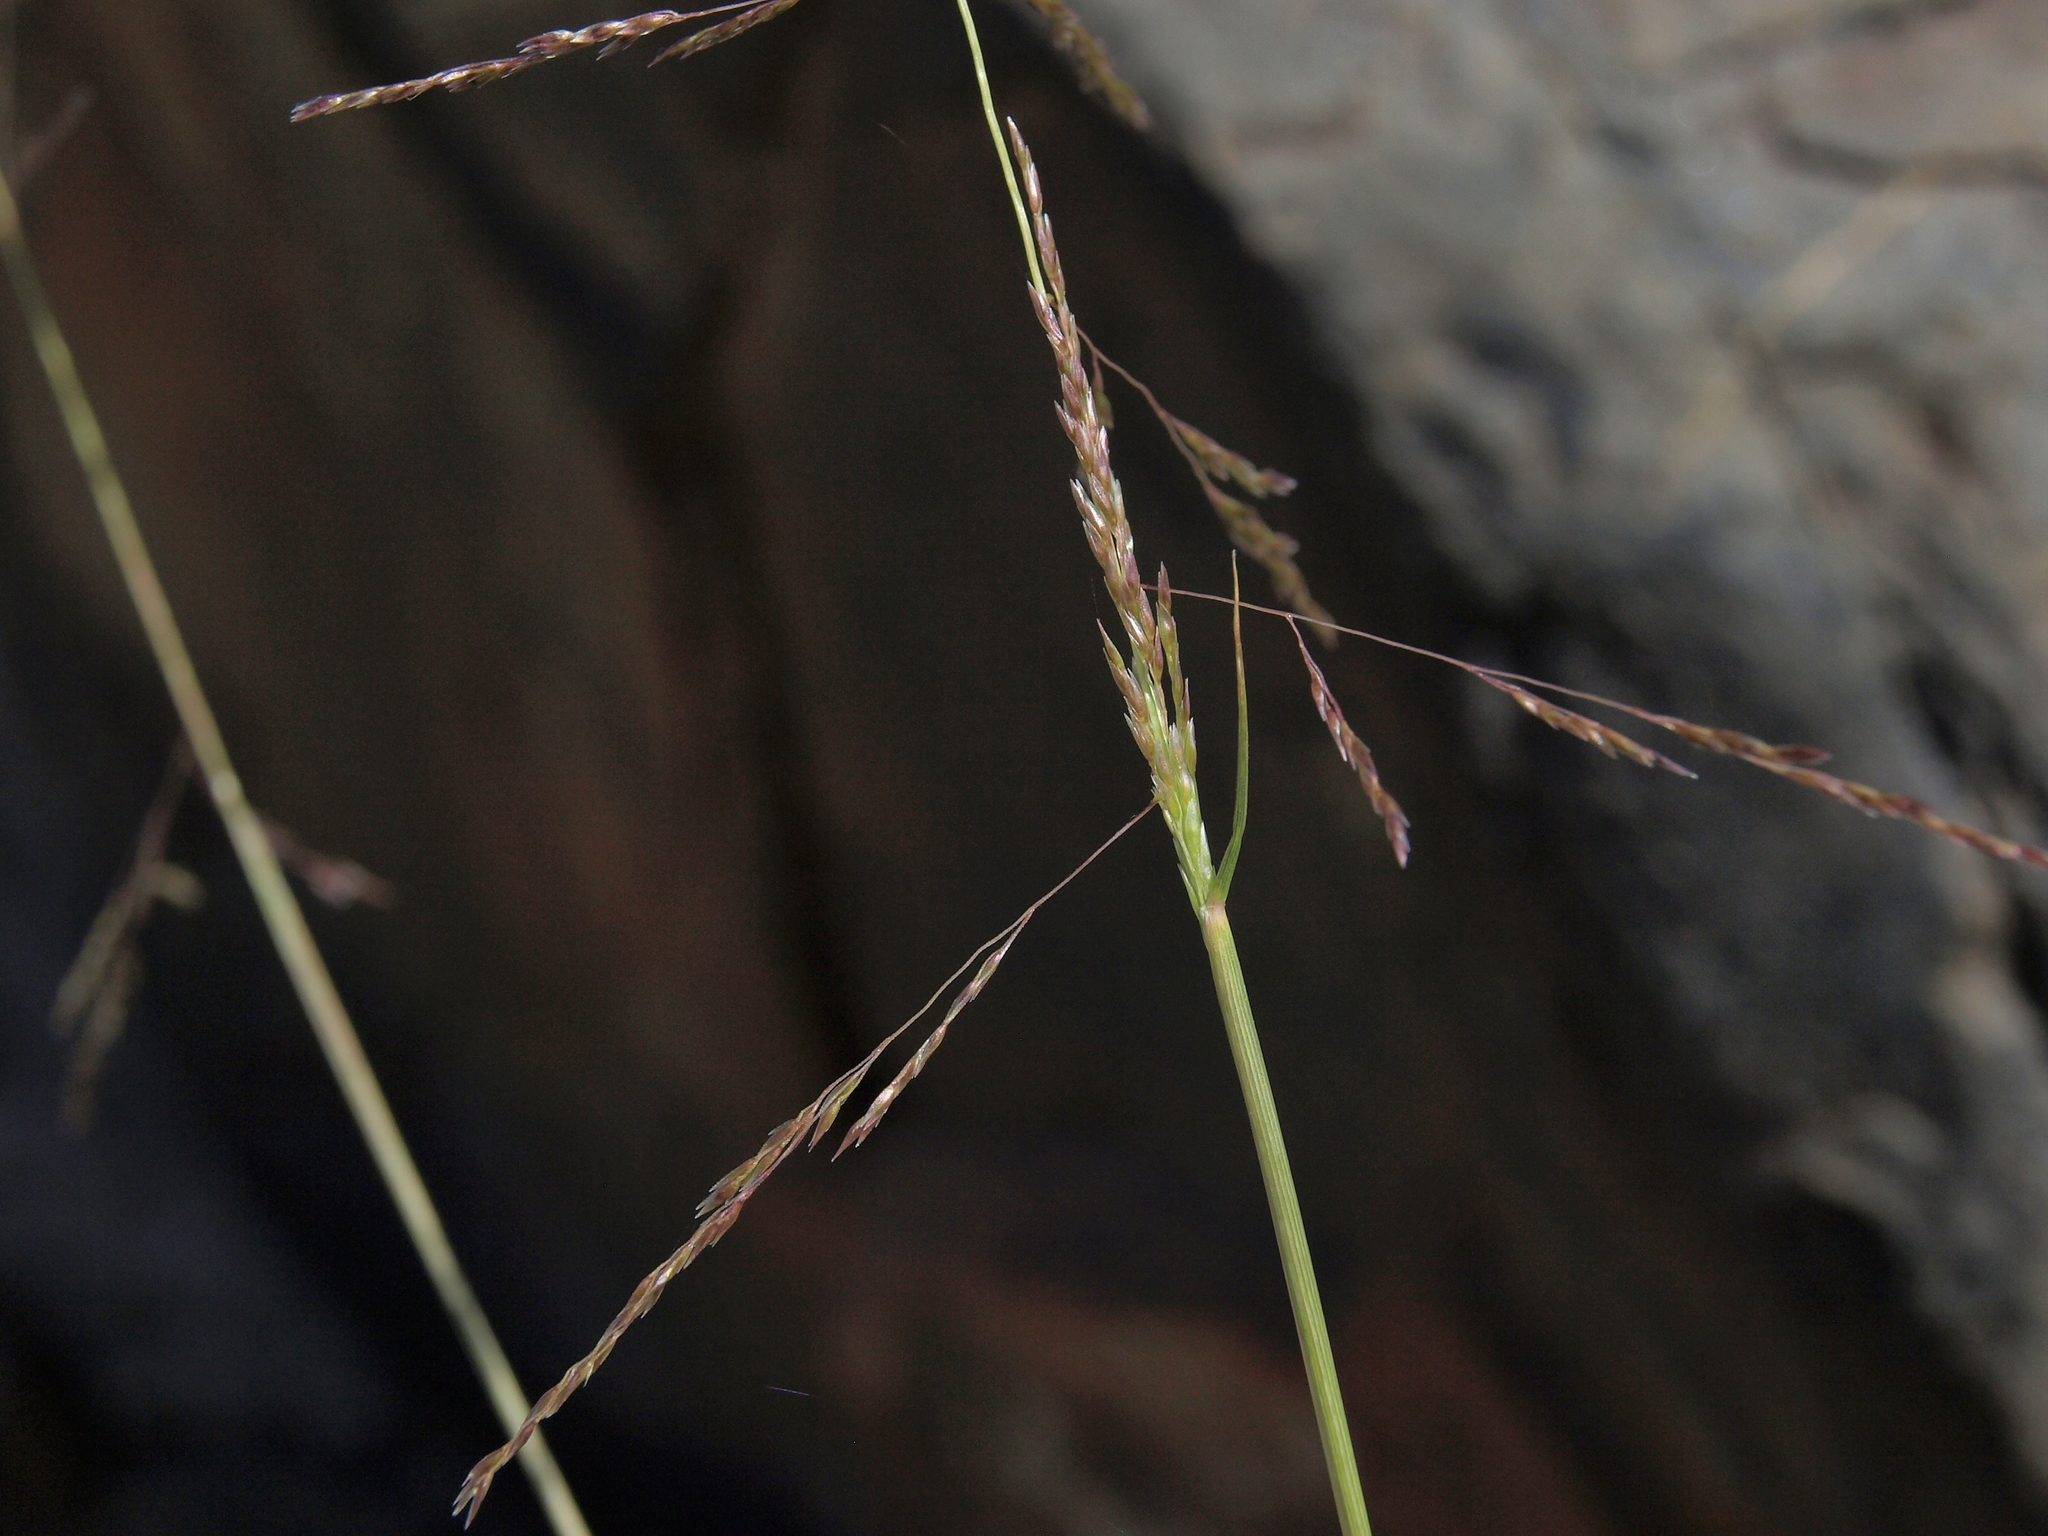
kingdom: Plantae
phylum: Tracheophyta
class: Liliopsida
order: Poales
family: Poaceae
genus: Sporobolus
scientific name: Sporobolus cryptandrus
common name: Sand dropseed
